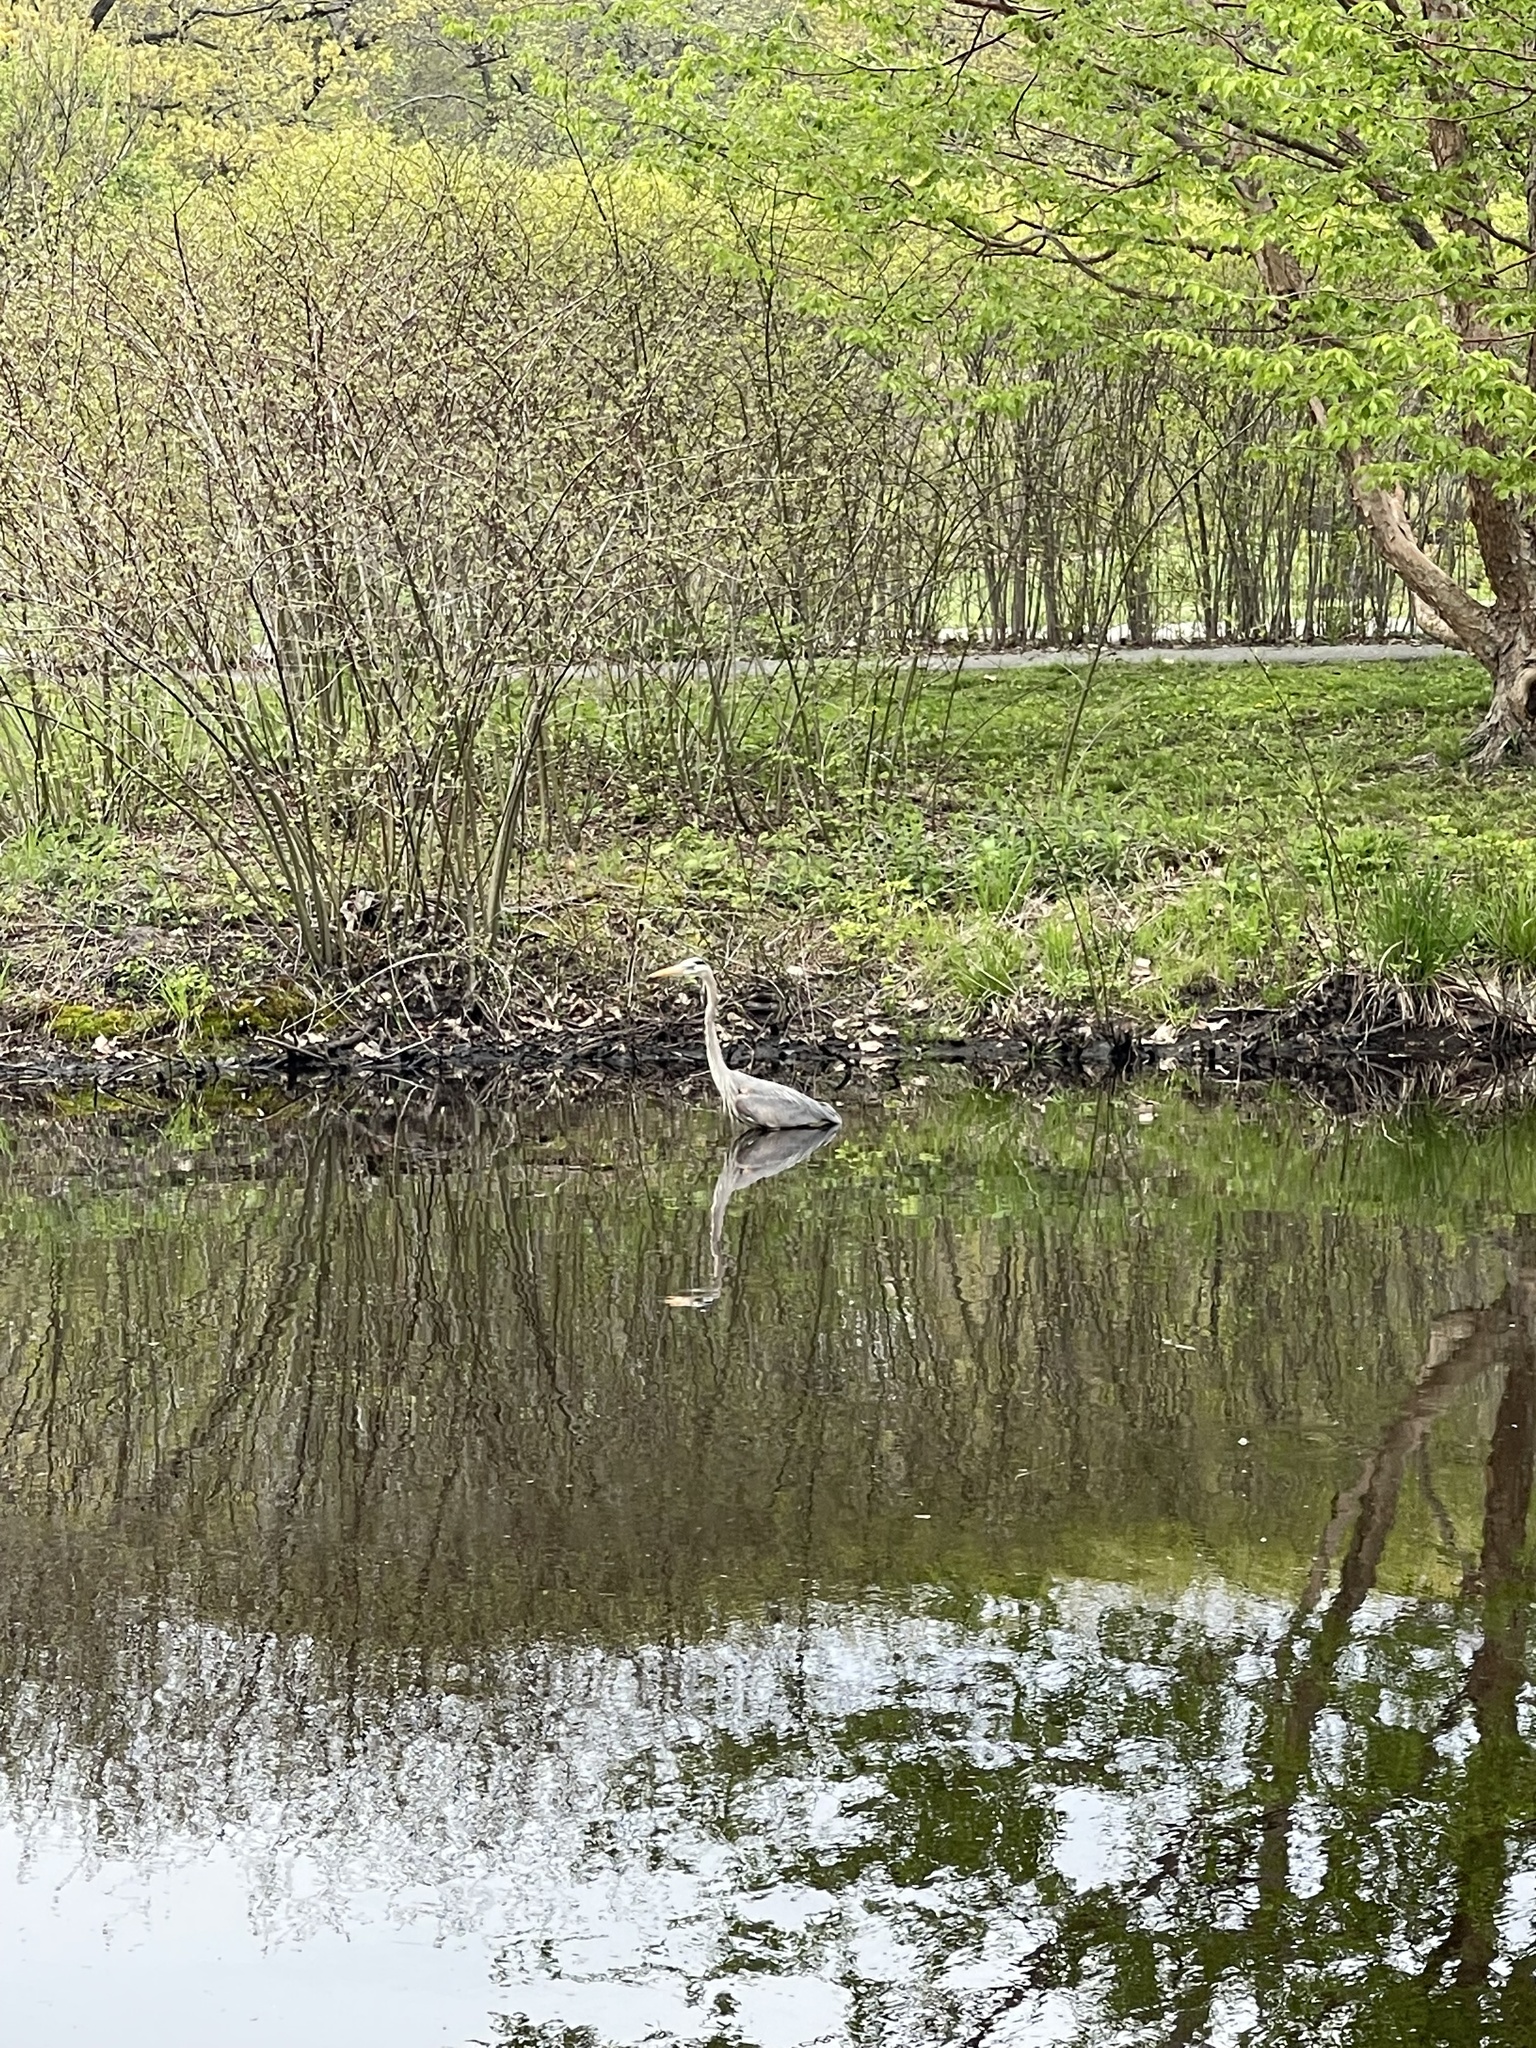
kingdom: Animalia
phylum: Chordata
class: Aves
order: Pelecaniformes
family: Ardeidae
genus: Ardea
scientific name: Ardea herodias
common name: Great blue heron
